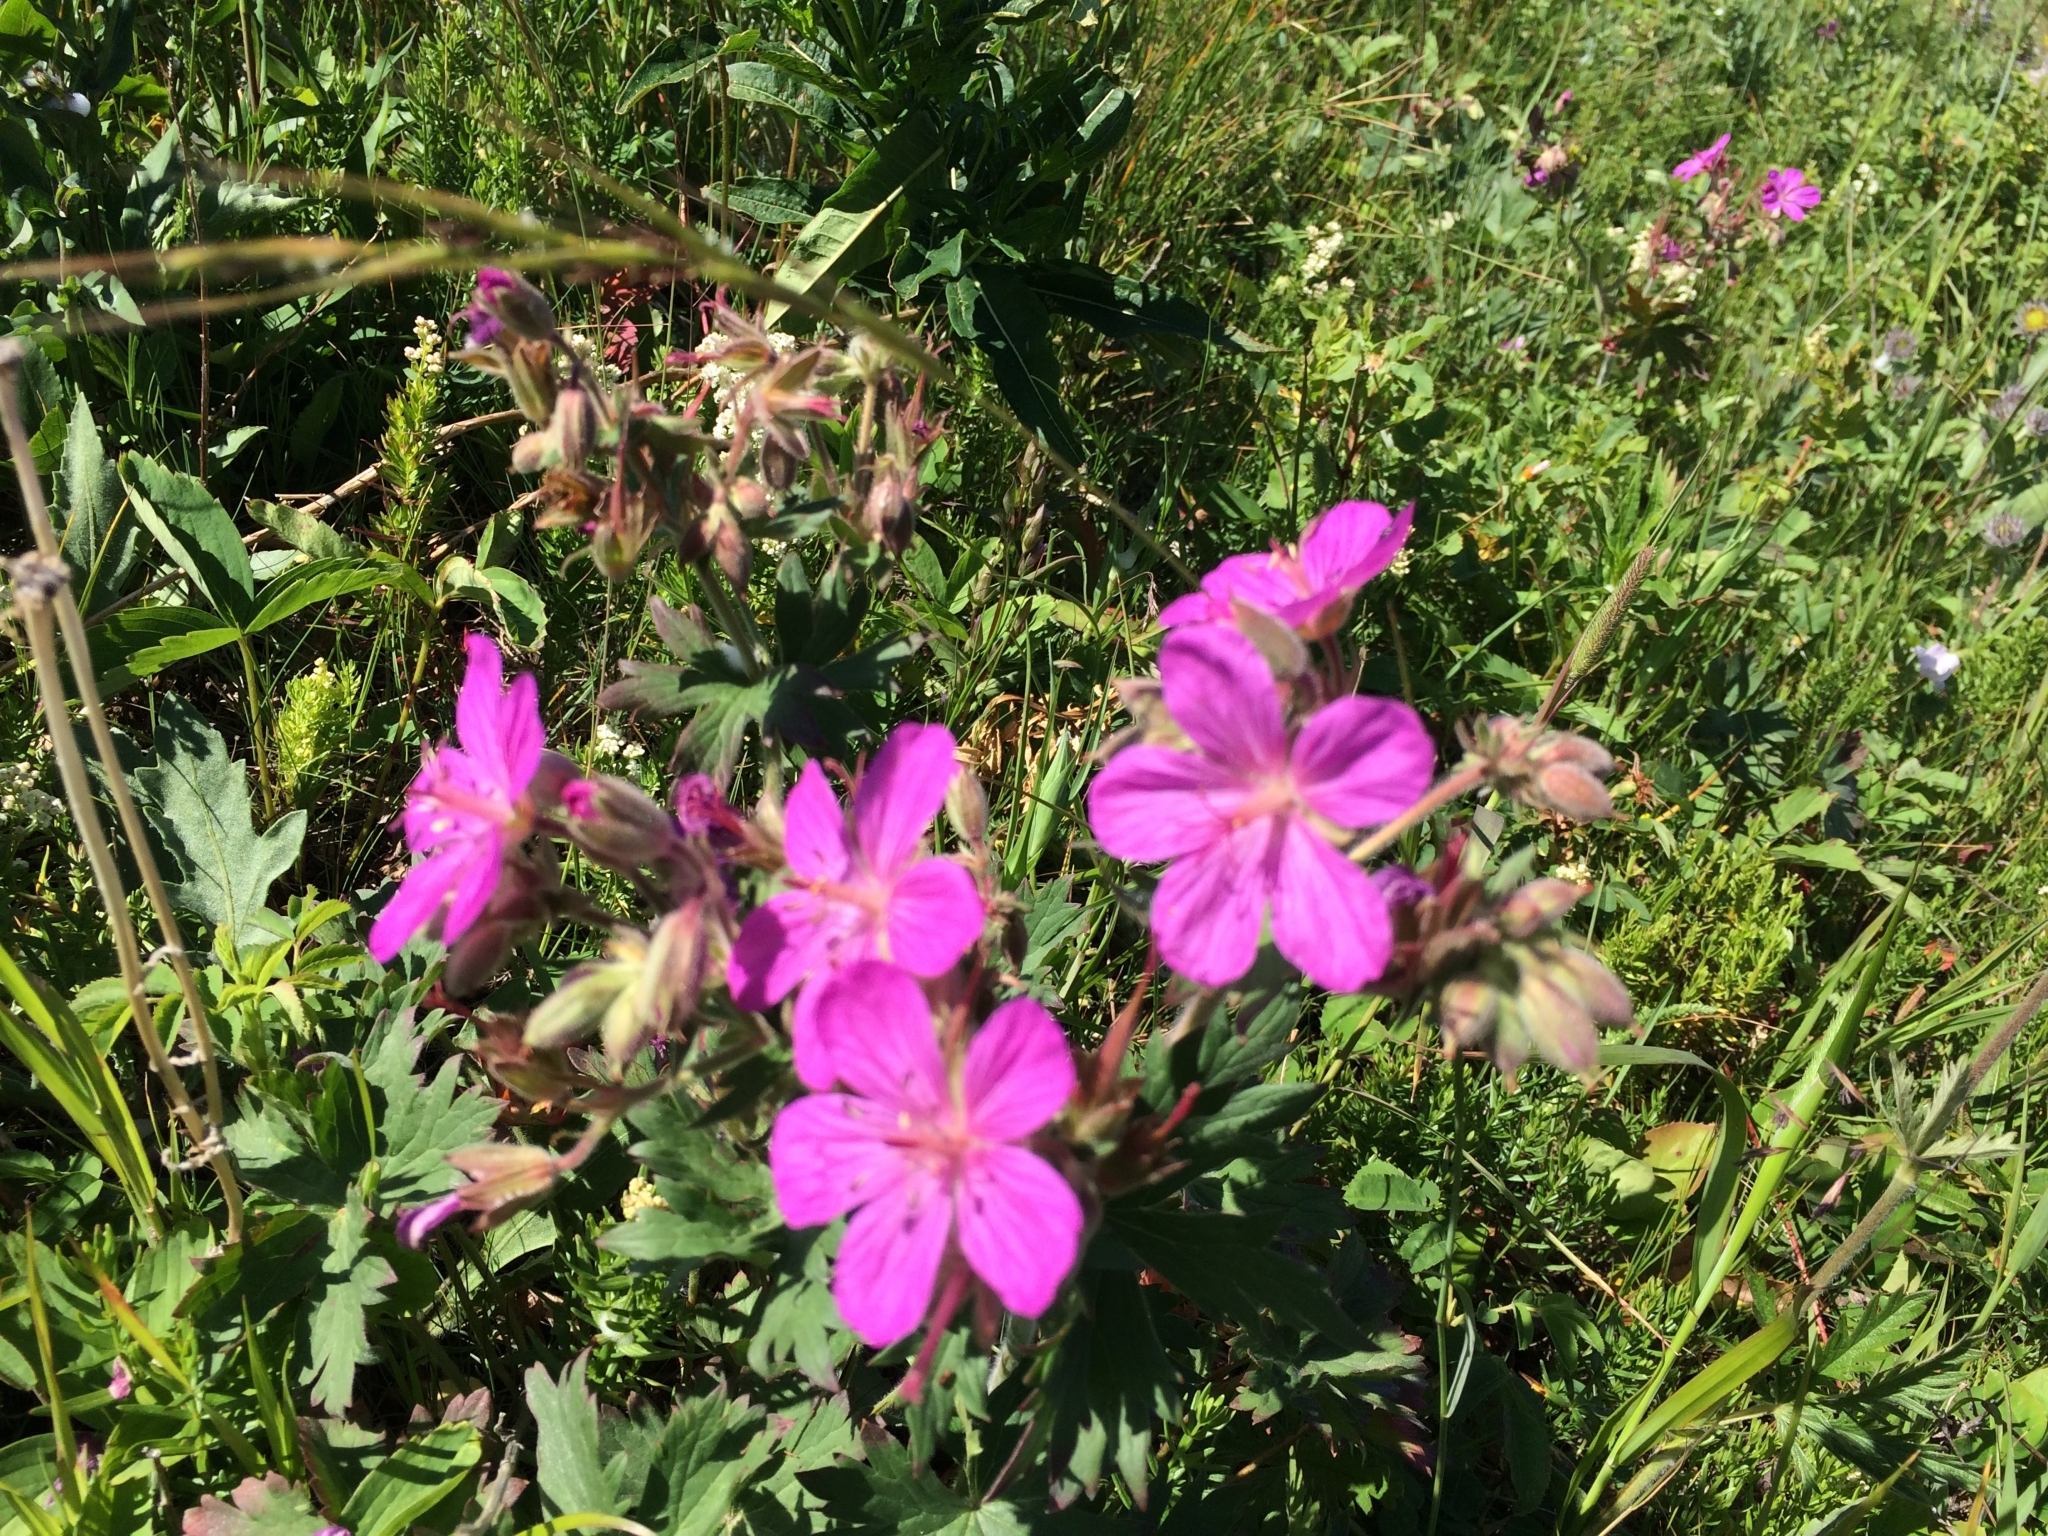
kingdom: Plantae
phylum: Tracheophyta
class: Magnoliopsida
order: Geraniales
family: Geraniaceae
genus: Geranium
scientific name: Geranium viscosissimum
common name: Purple geranium
